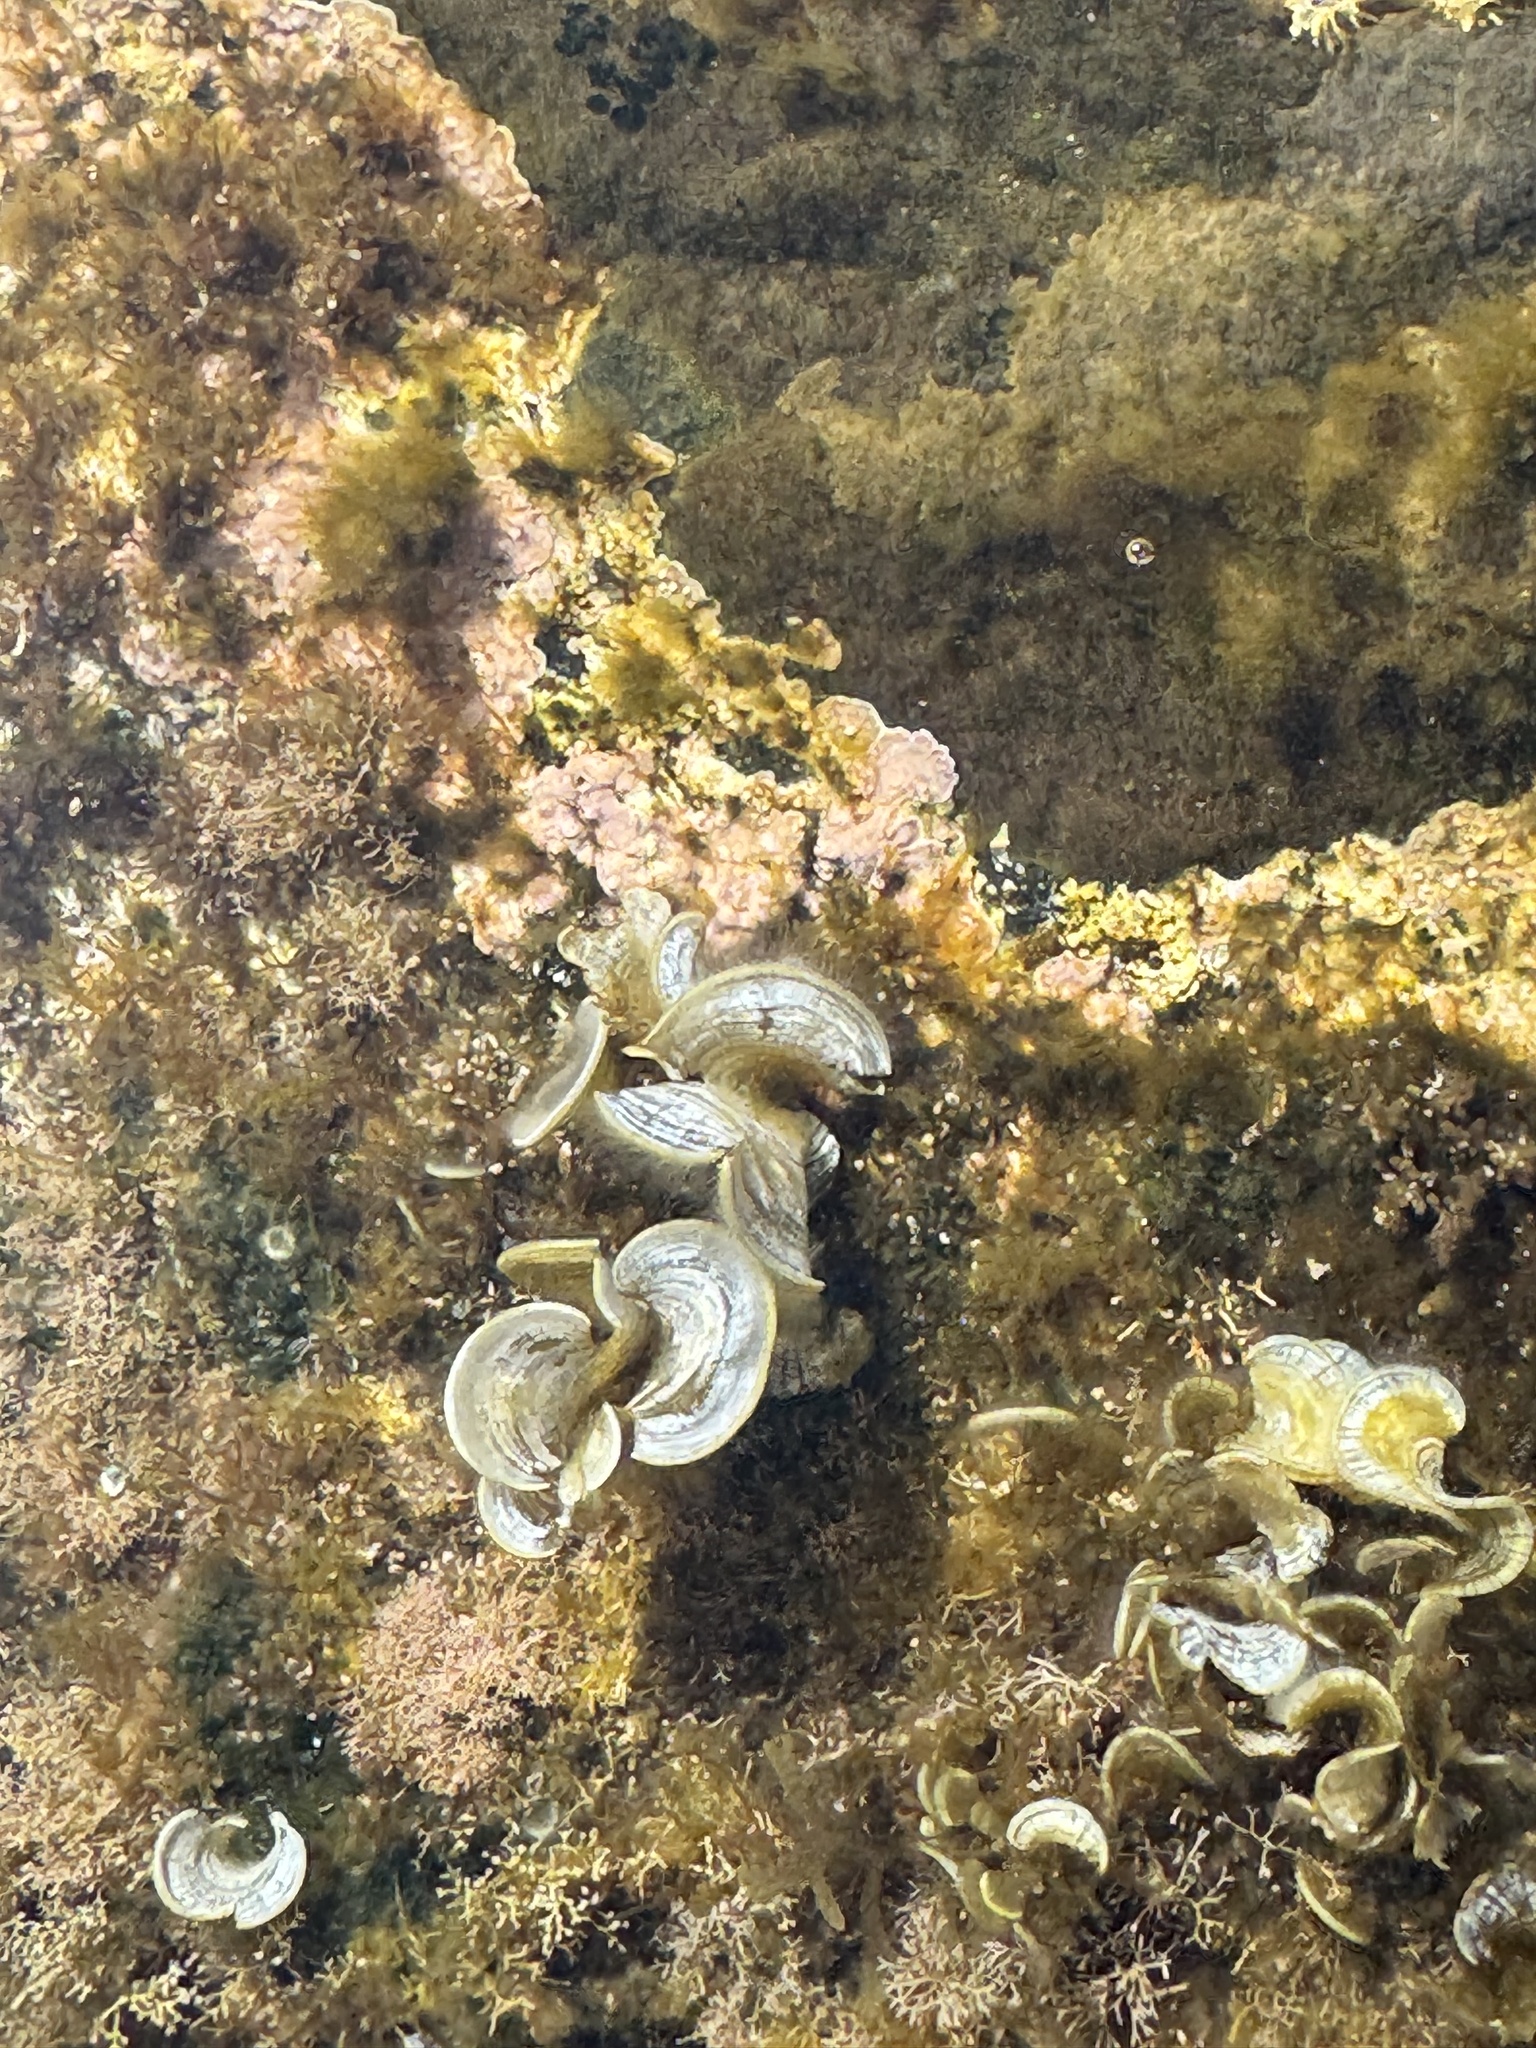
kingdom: Chromista
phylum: Ochrophyta
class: Phaeophyceae
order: Dictyotales
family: Dictyotaceae
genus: Padina
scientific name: Padina pavonica
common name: Turkey feather alga
